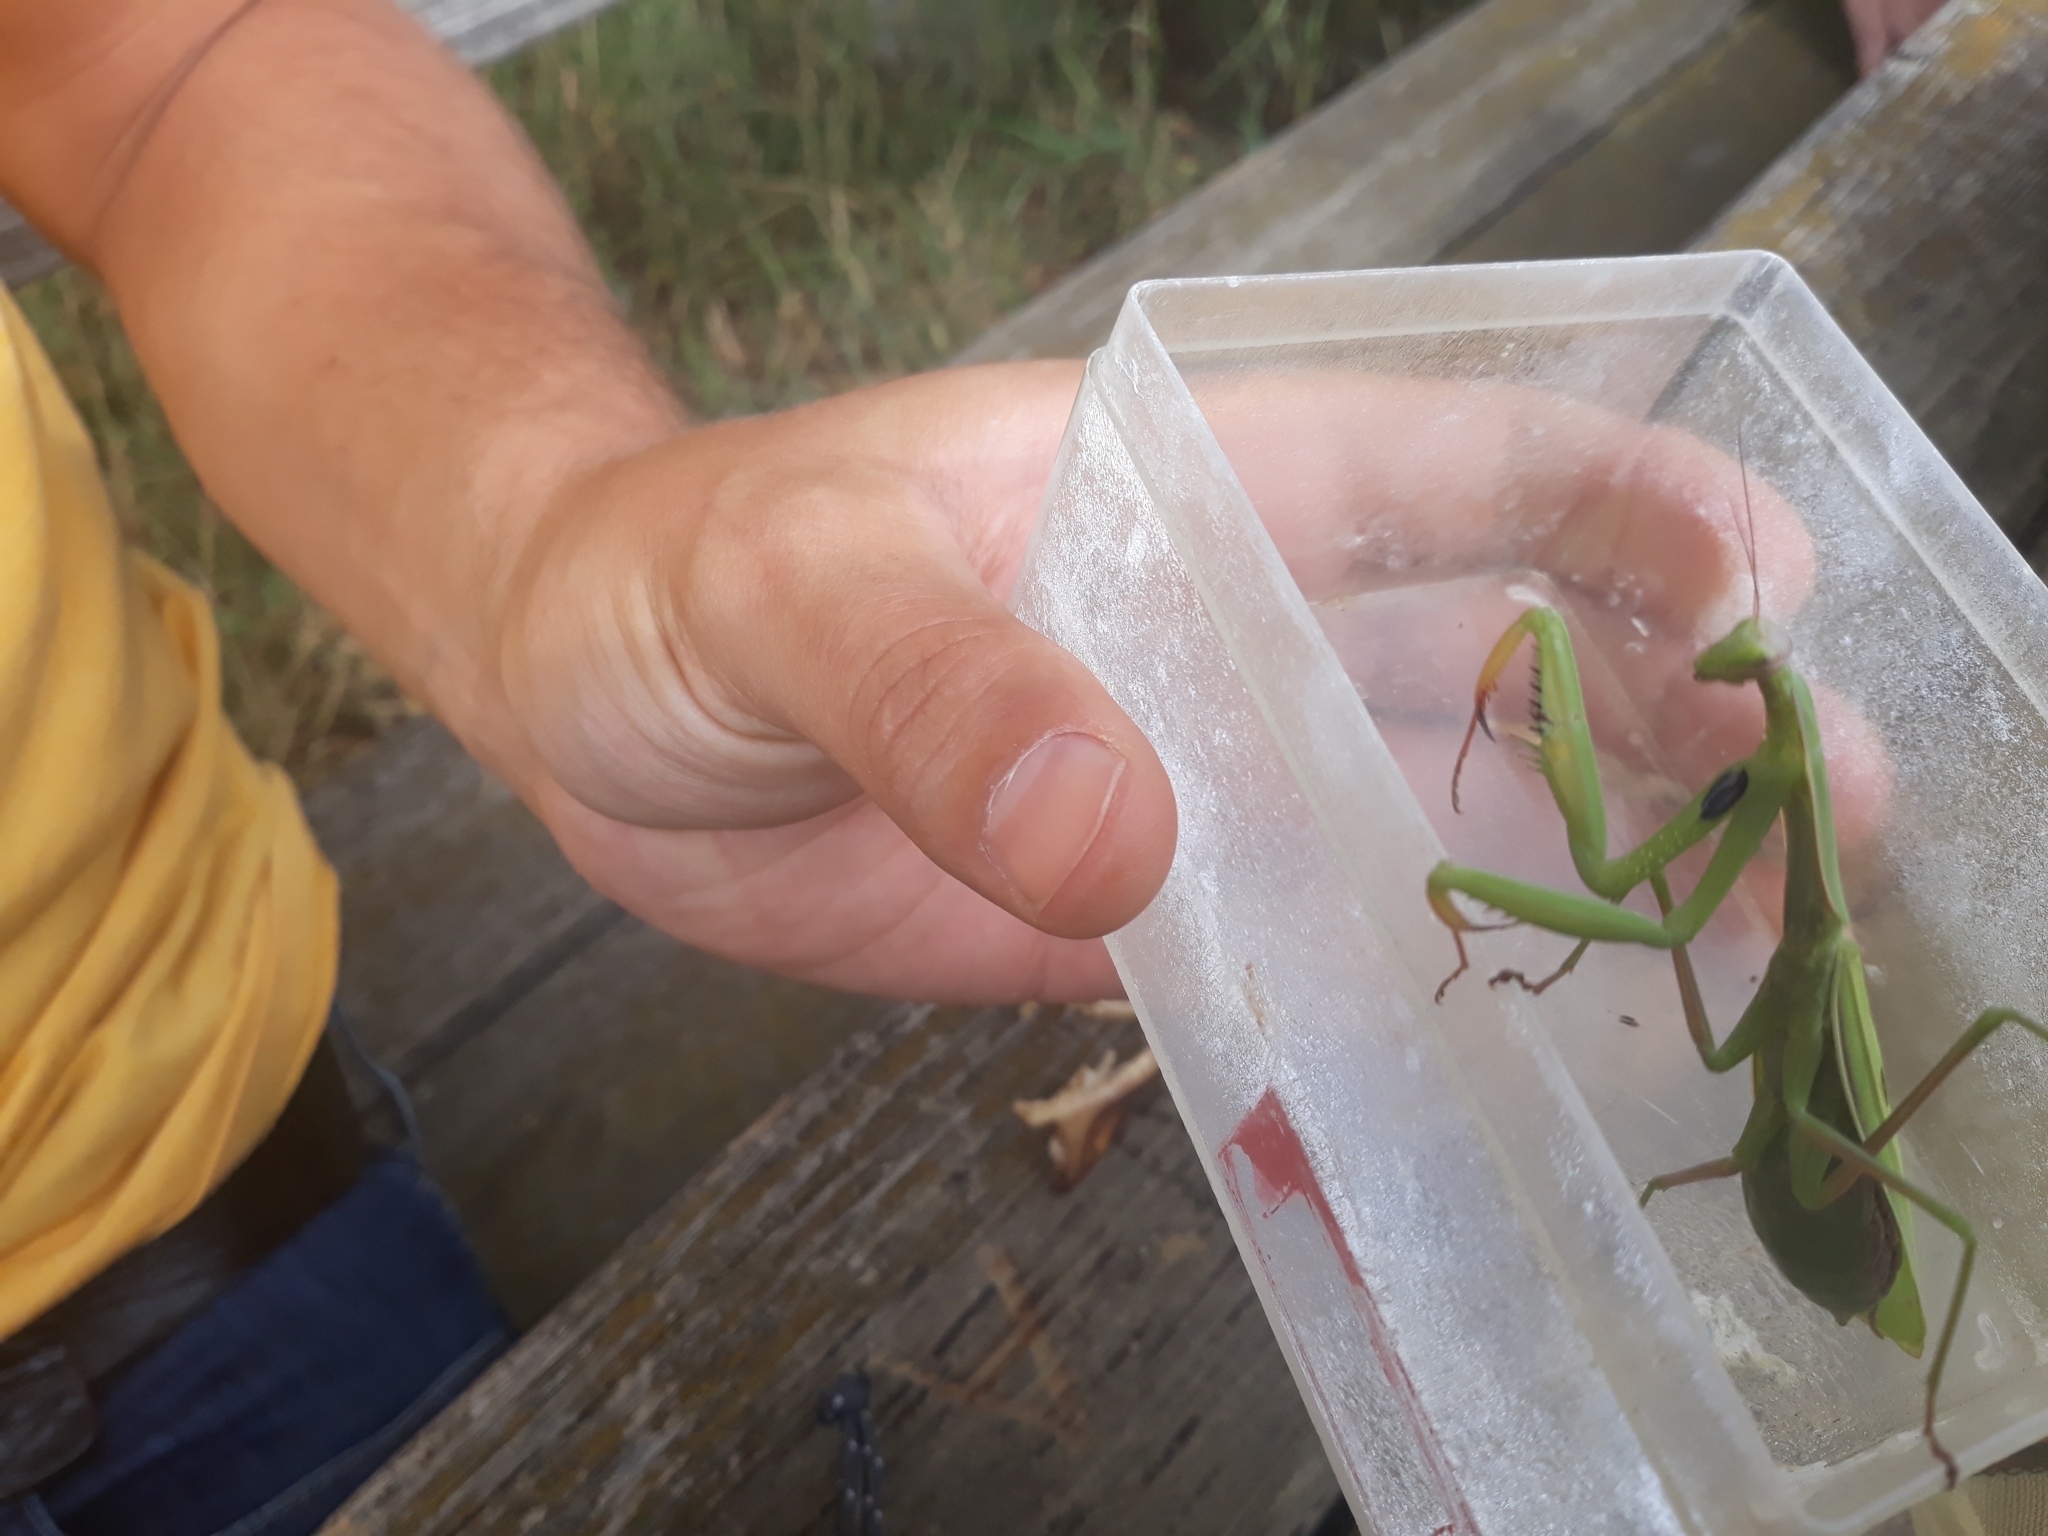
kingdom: Animalia
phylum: Arthropoda
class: Insecta
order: Mantodea
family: Mantidae
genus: Mantis
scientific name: Mantis religiosa
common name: Praying mantis
